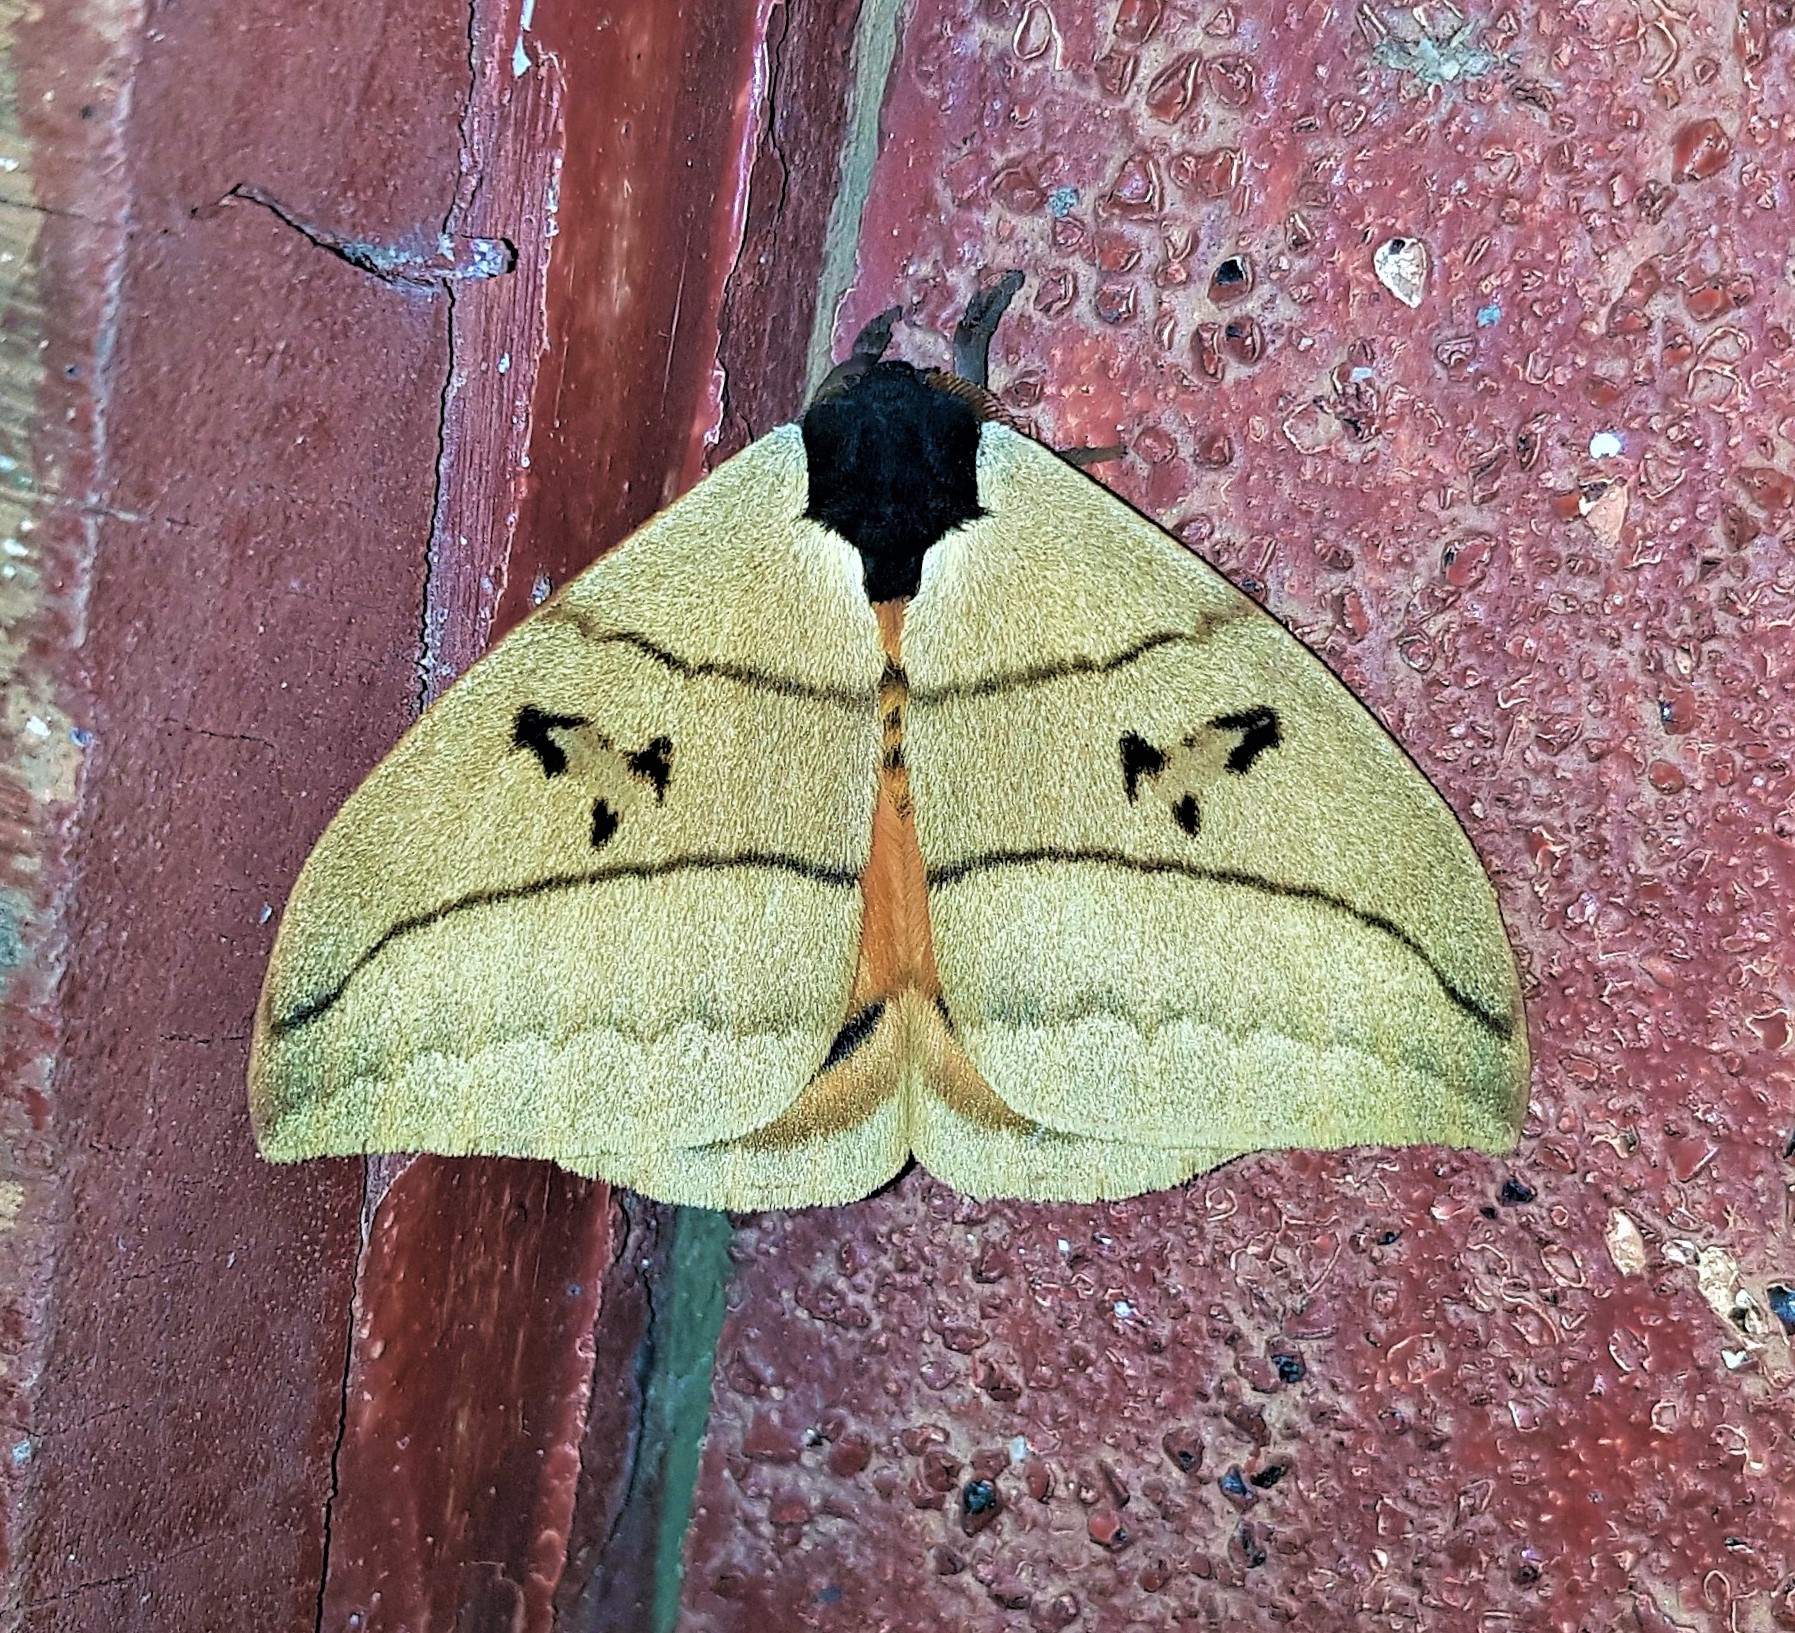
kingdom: Animalia
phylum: Arthropoda
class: Insecta
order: Lepidoptera
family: Saturniidae
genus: Automeris
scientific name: Automeris curvilinea
